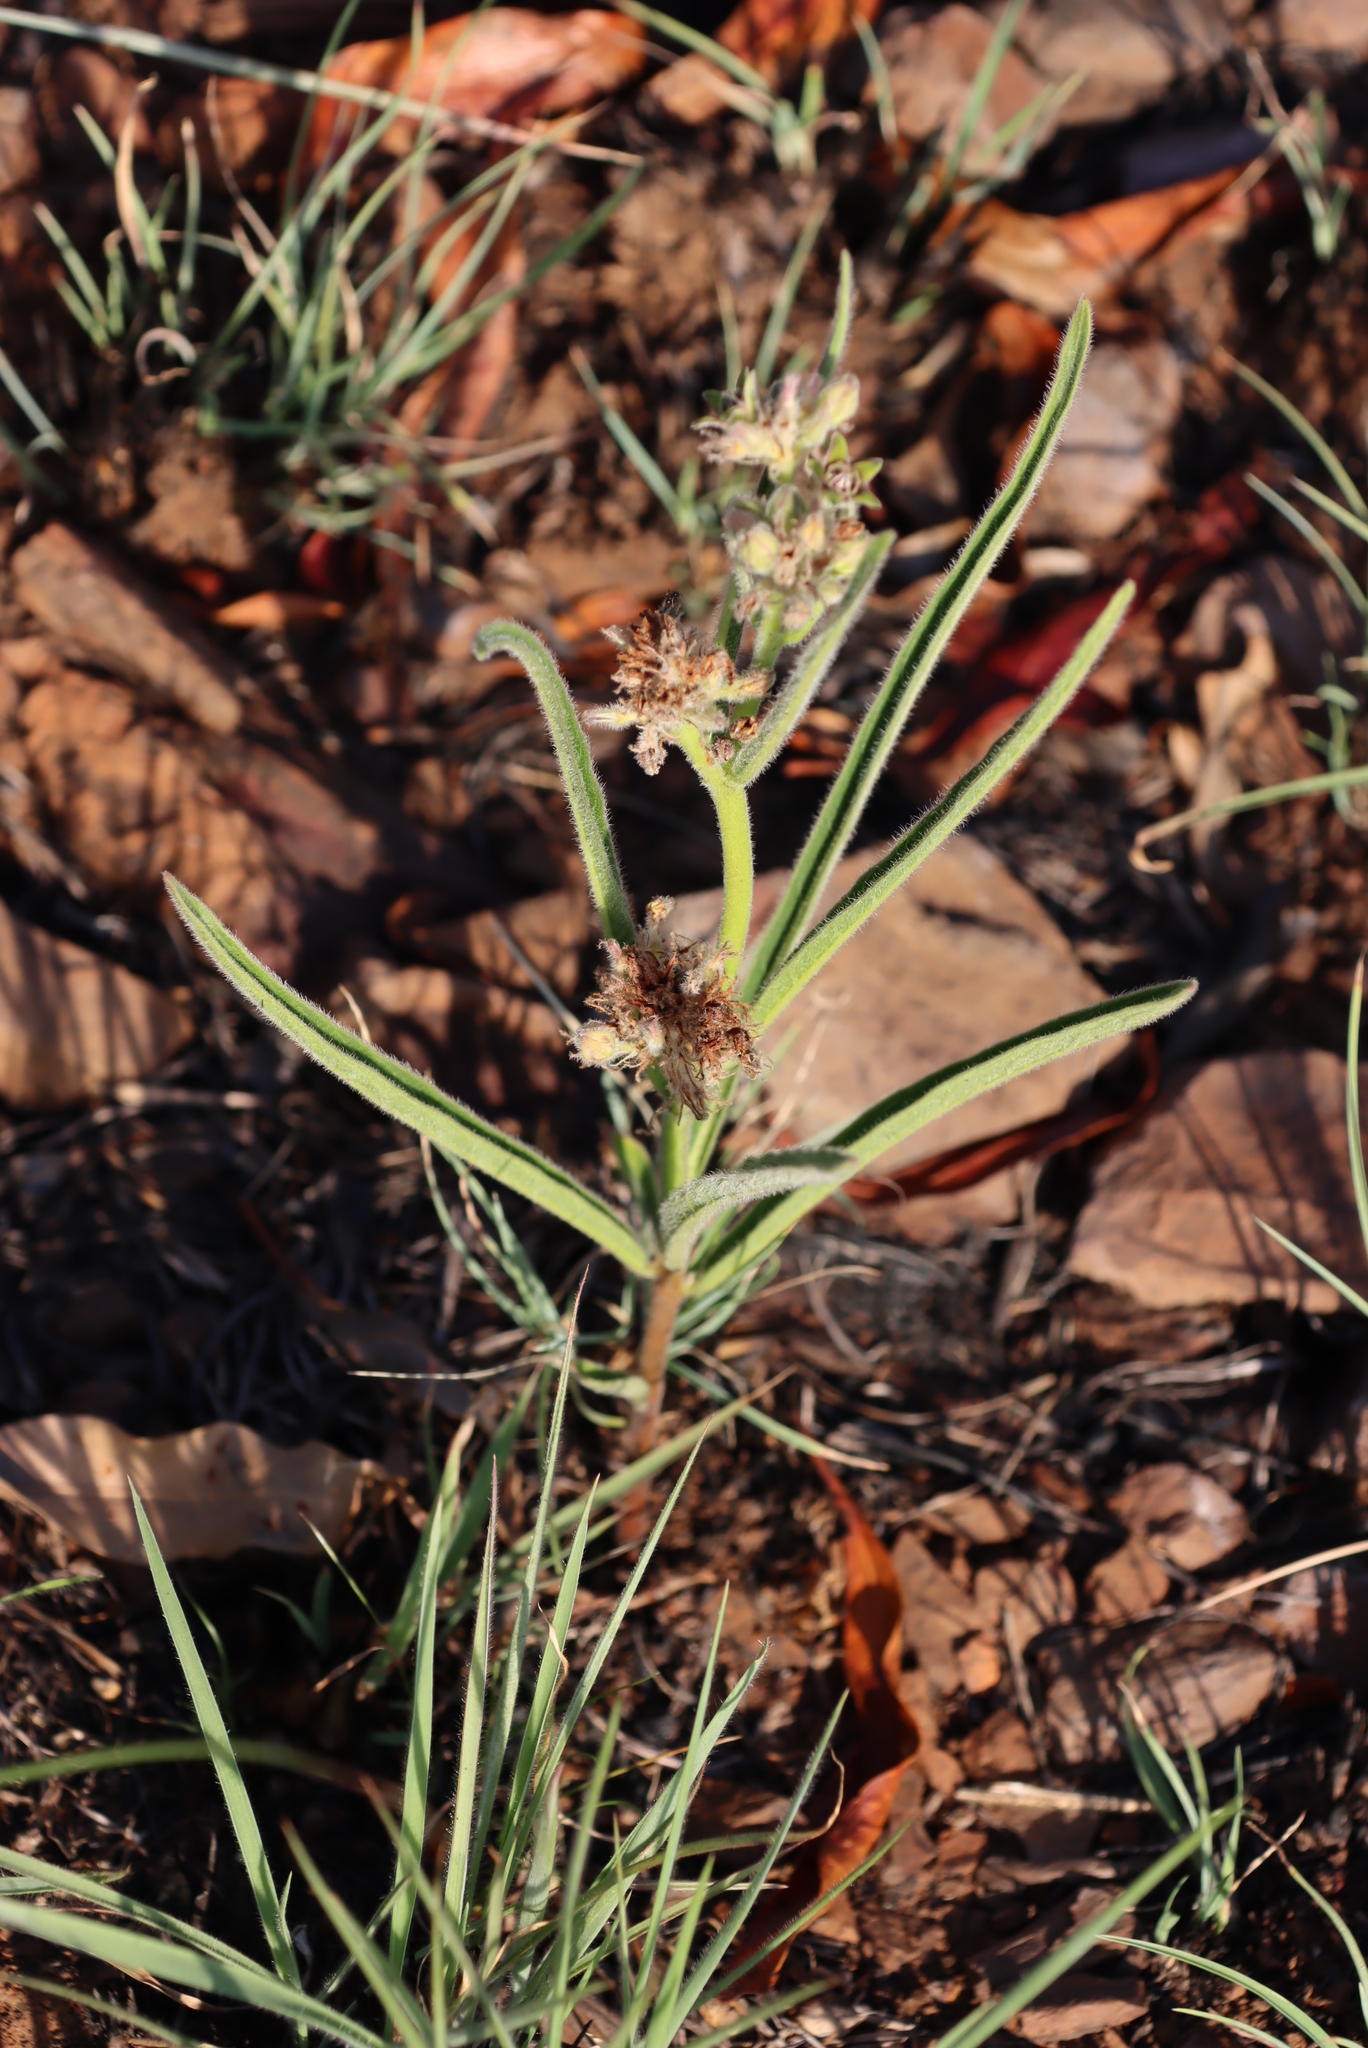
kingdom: Plantae
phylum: Tracheophyta
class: Magnoliopsida
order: Gentianales
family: Apocynaceae
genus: Raphionacme
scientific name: Raphionacme galpinii
